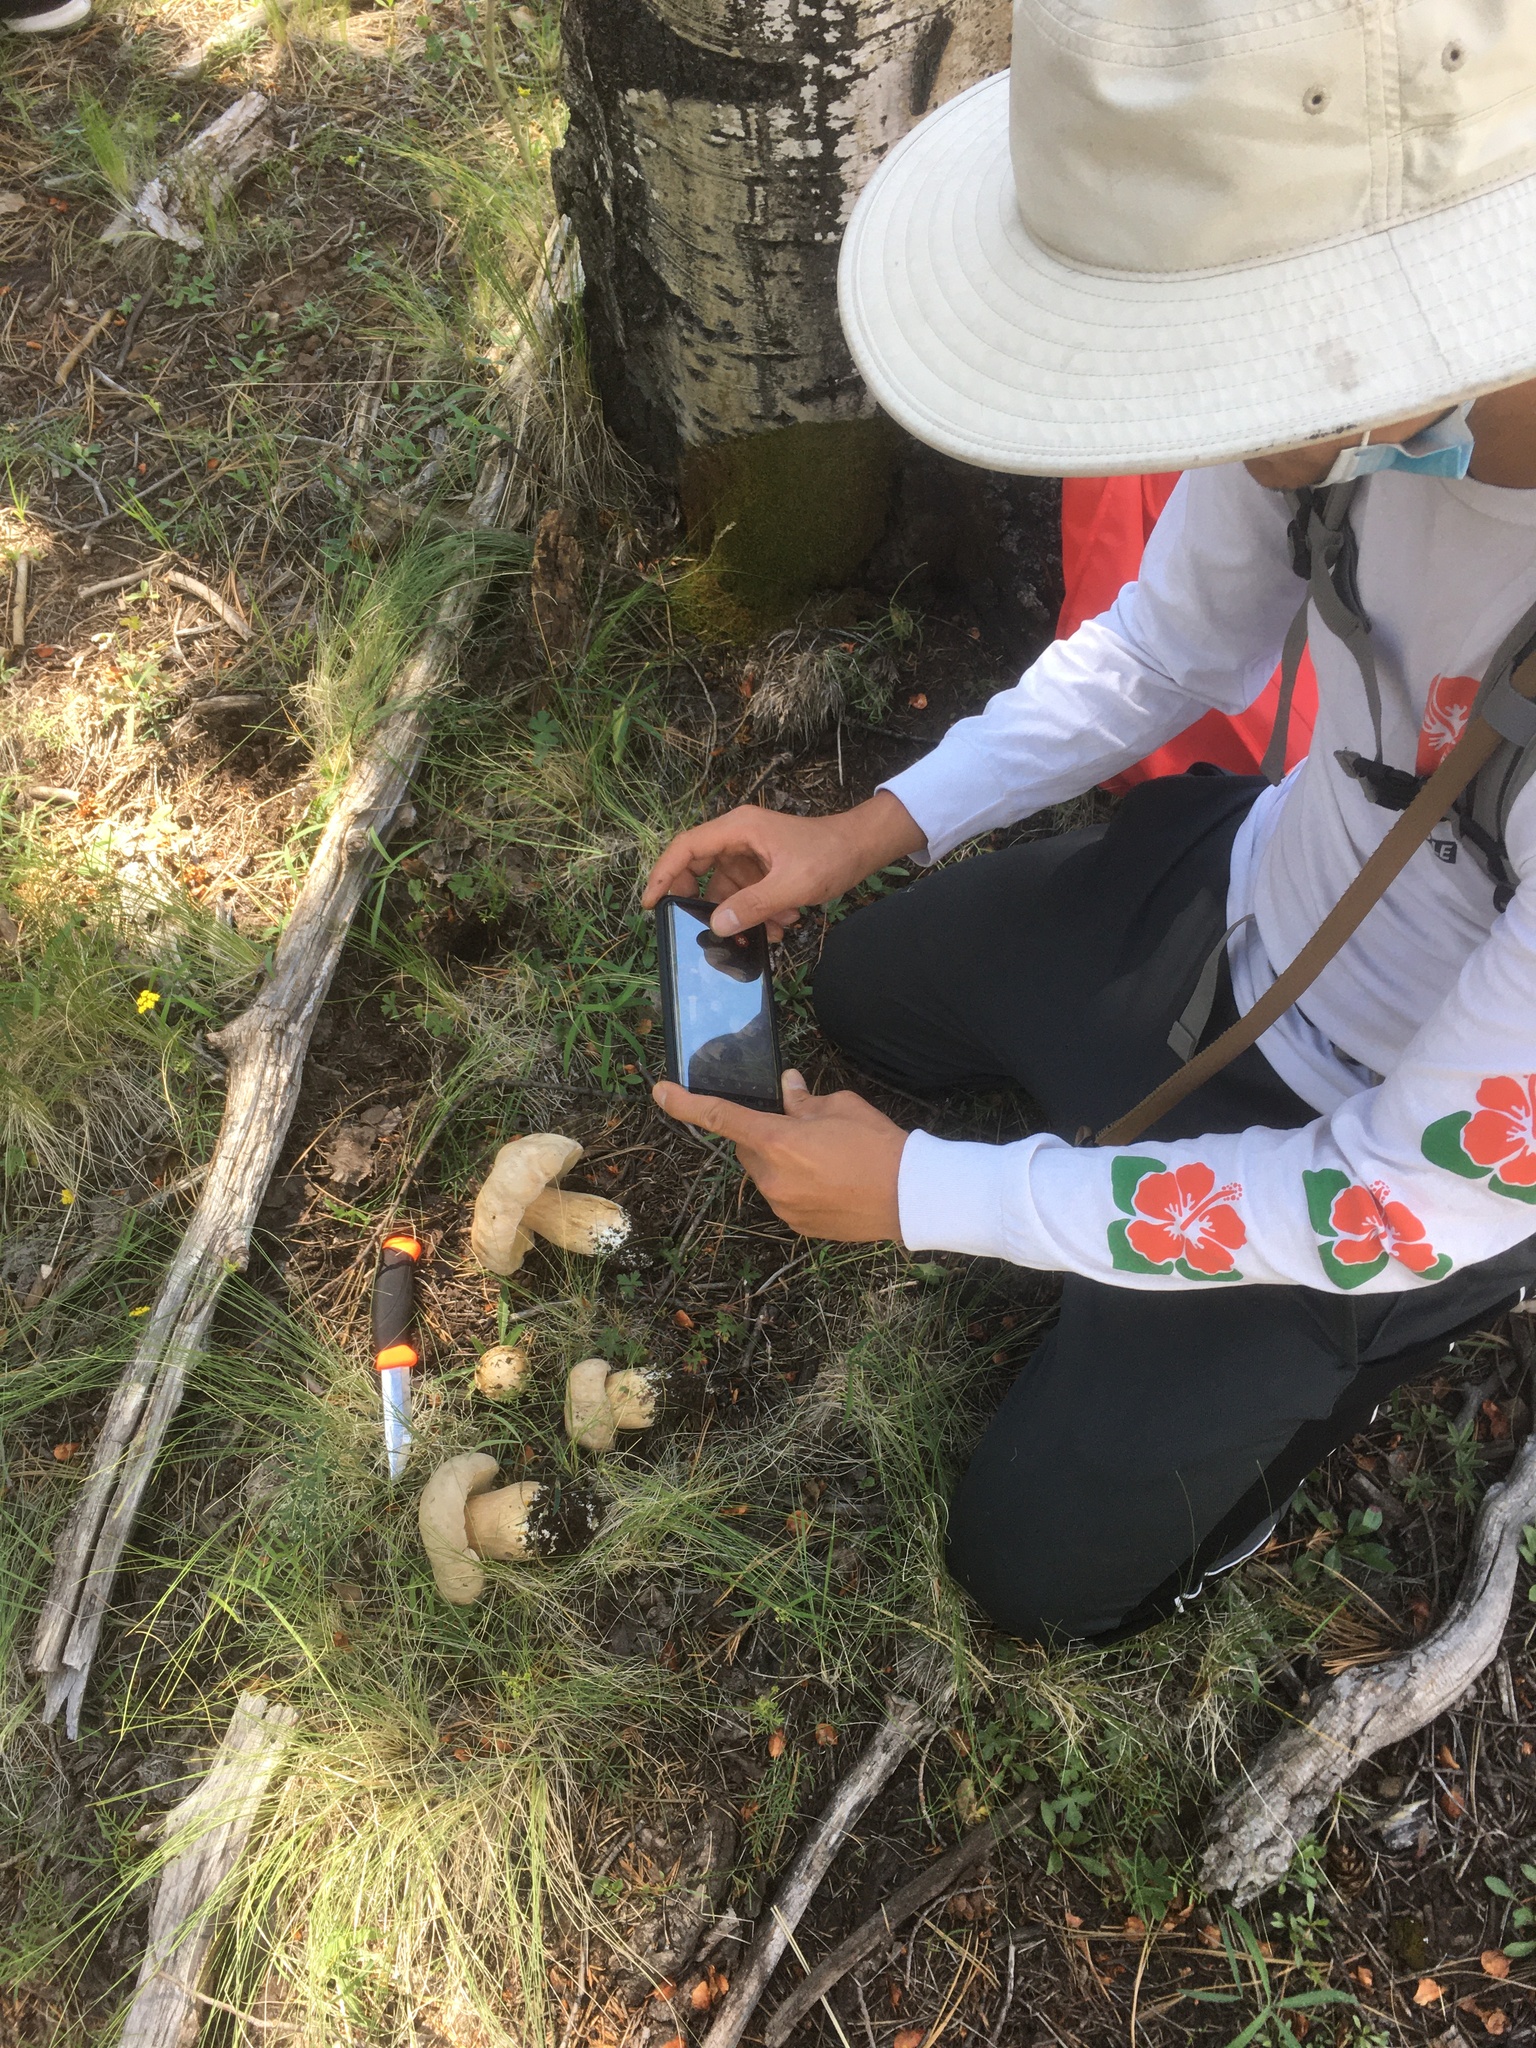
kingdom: Fungi
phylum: Basidiomycota
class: Agaricomycetes
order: Boletales
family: Boletaceae
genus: Boletus
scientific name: Boletus barrowsii
